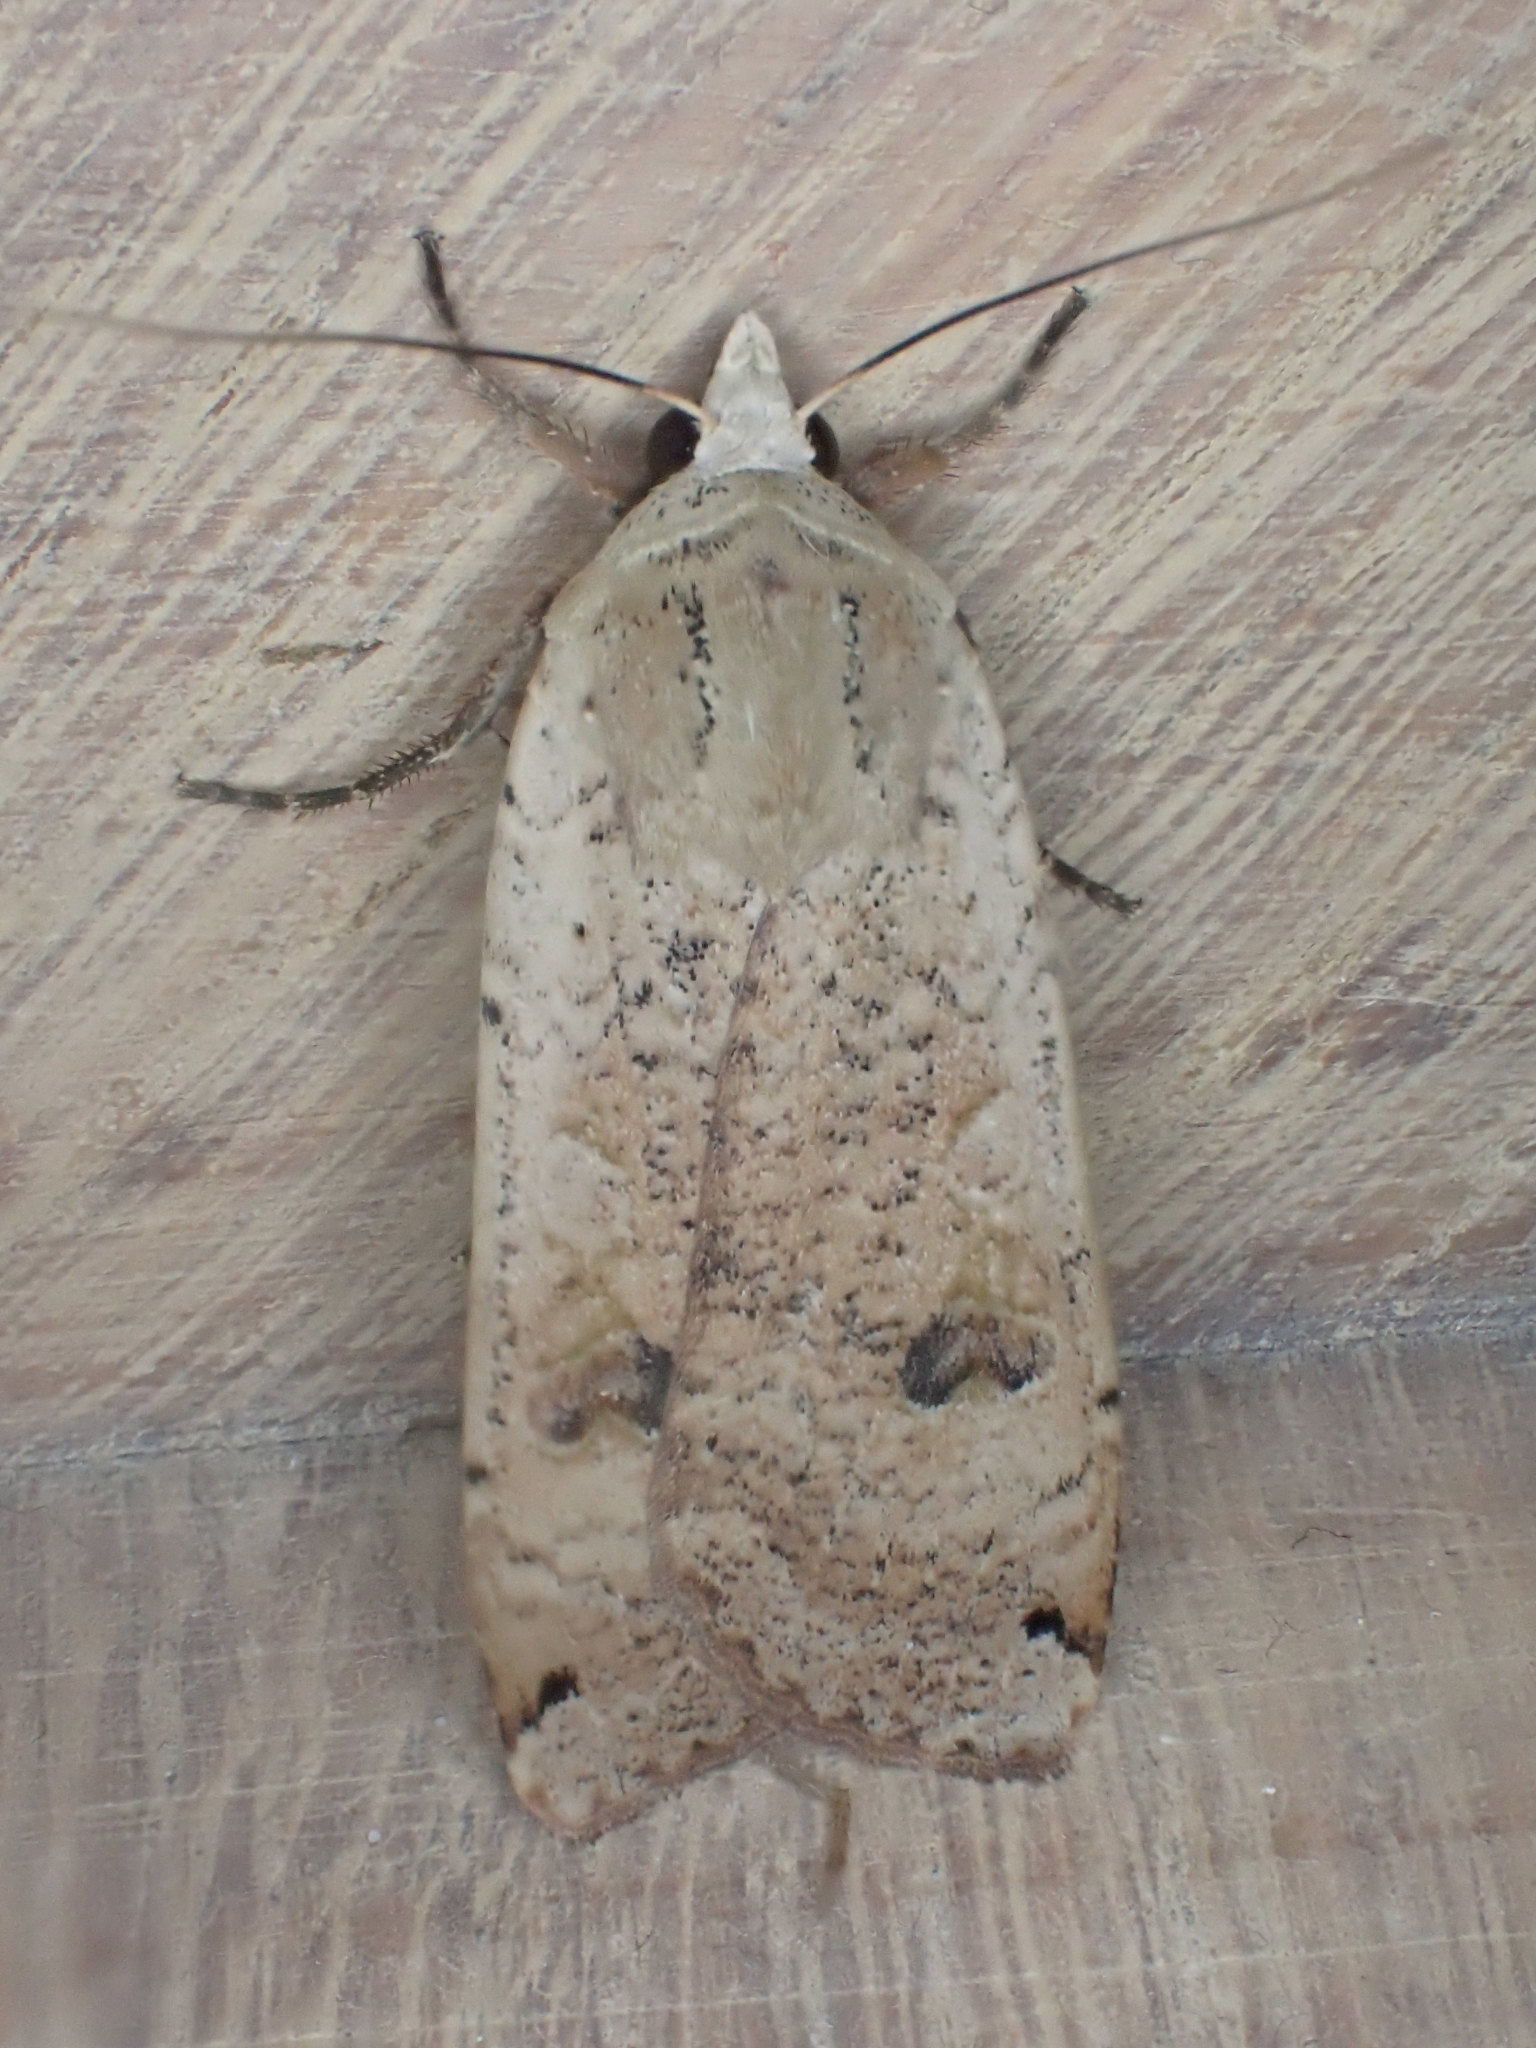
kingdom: Animalia
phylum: Arthropoda
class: Insecta
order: Lepidoptera
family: Noctuidae
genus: Noctua
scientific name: Noctua pronuba
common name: Large yellow underwing
